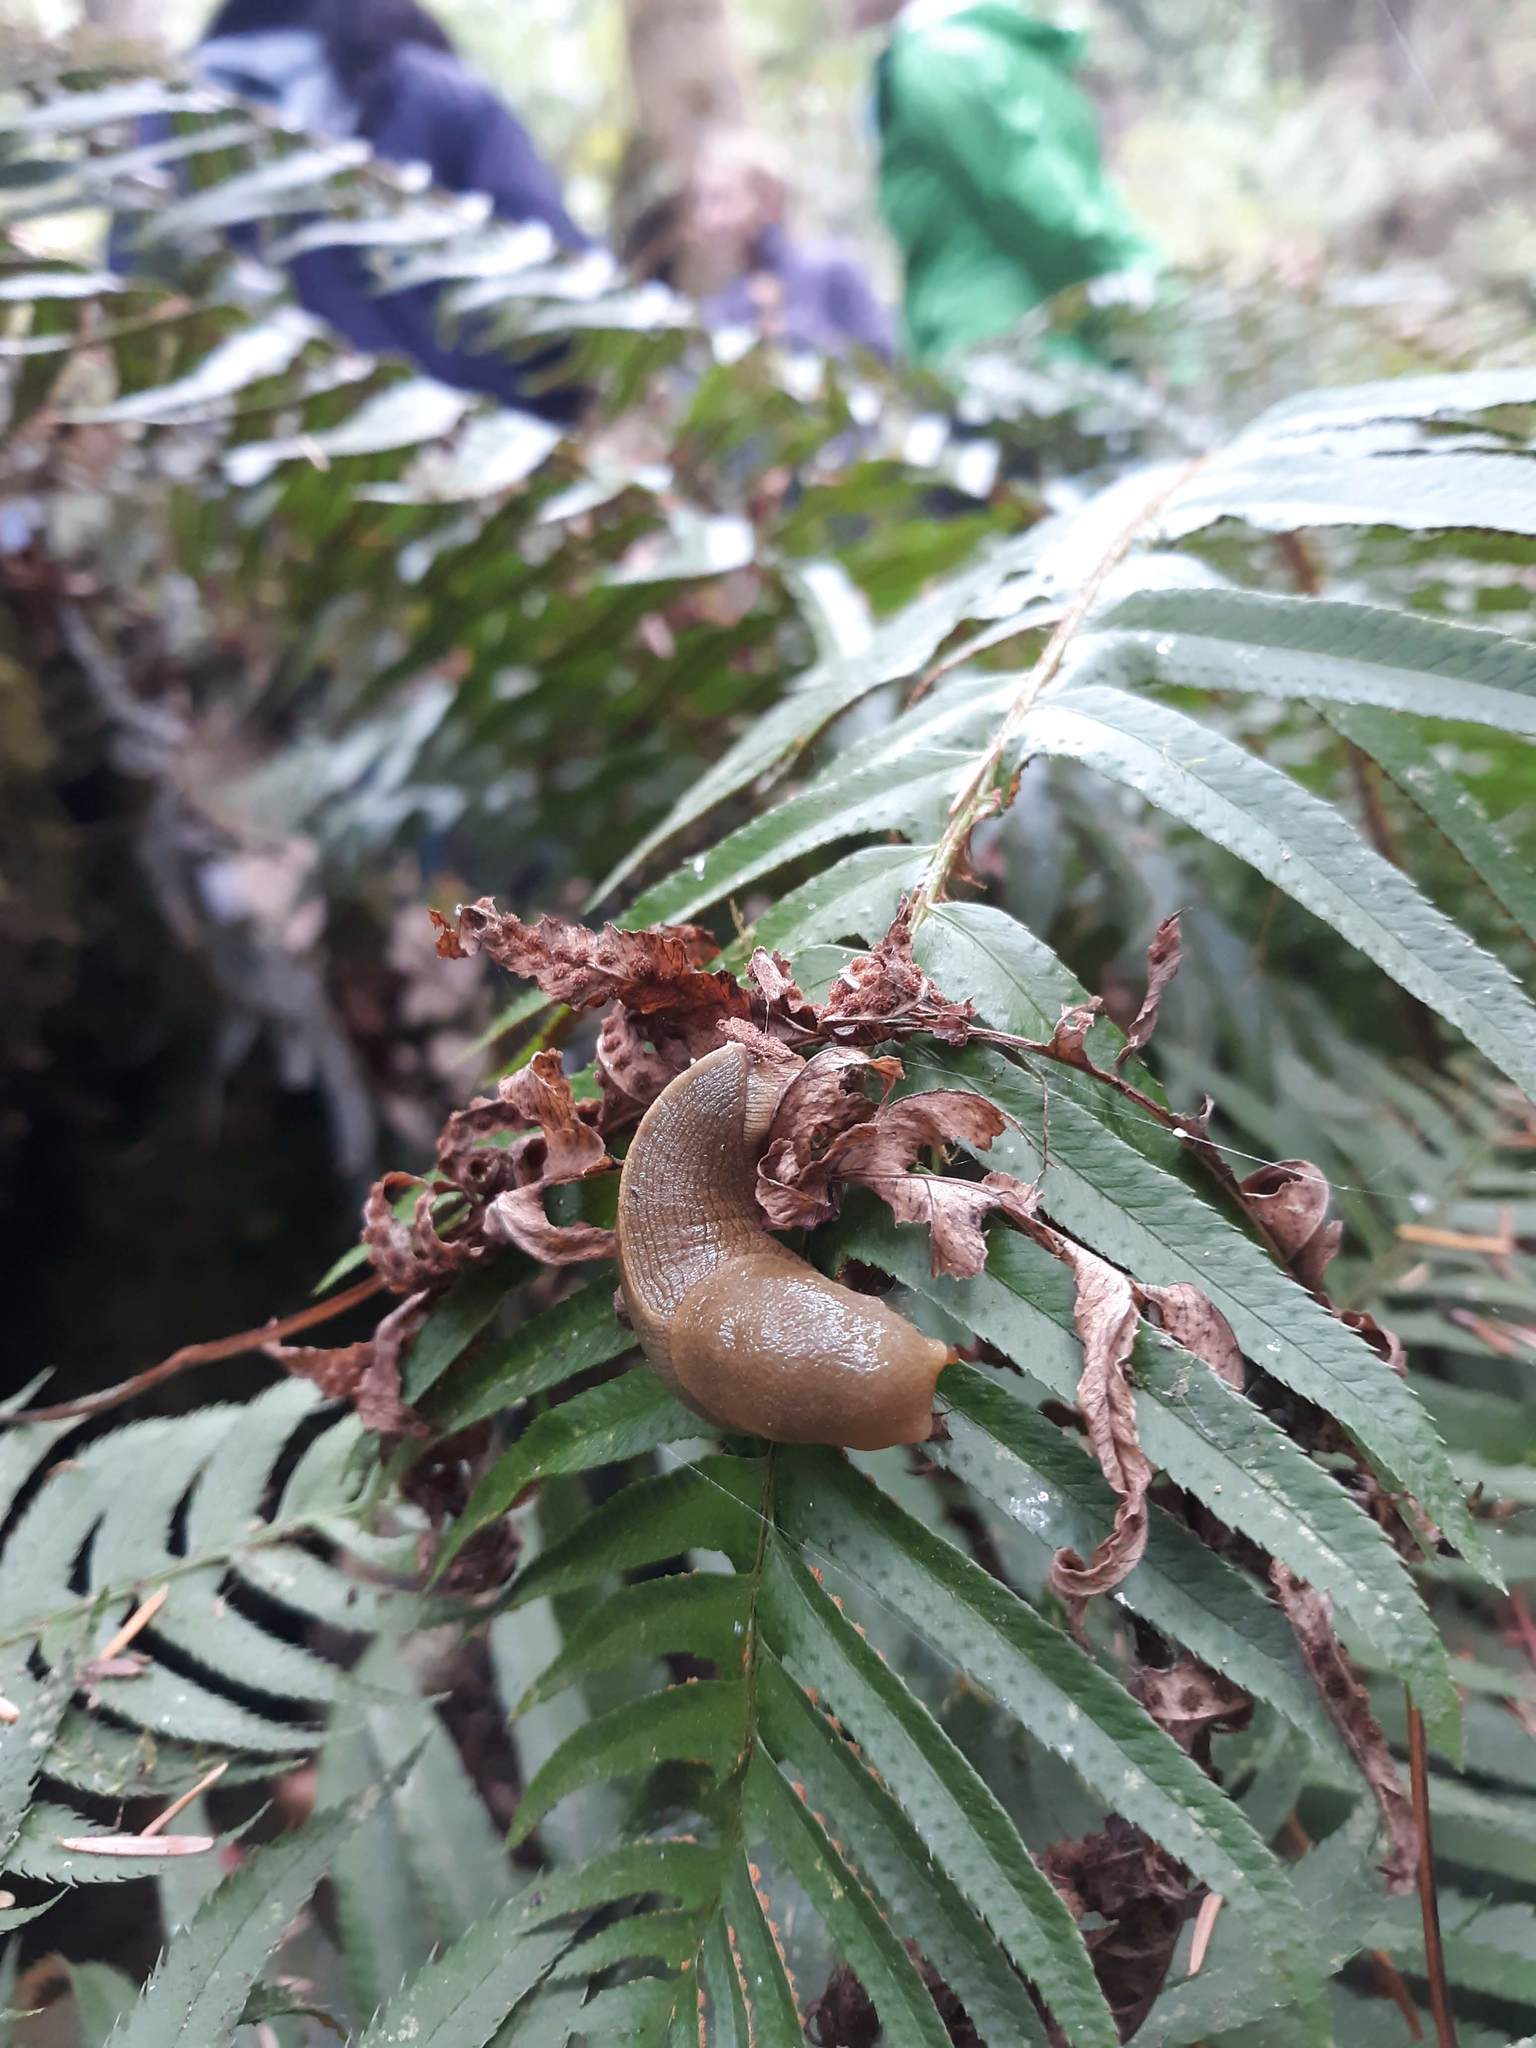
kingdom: Animalia
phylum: Mollusca
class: Gastropoda
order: Stylommatophora
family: Ariolimacidae
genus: Ariolimax
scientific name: Ariolimax columbianus
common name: Pacific banana slug
